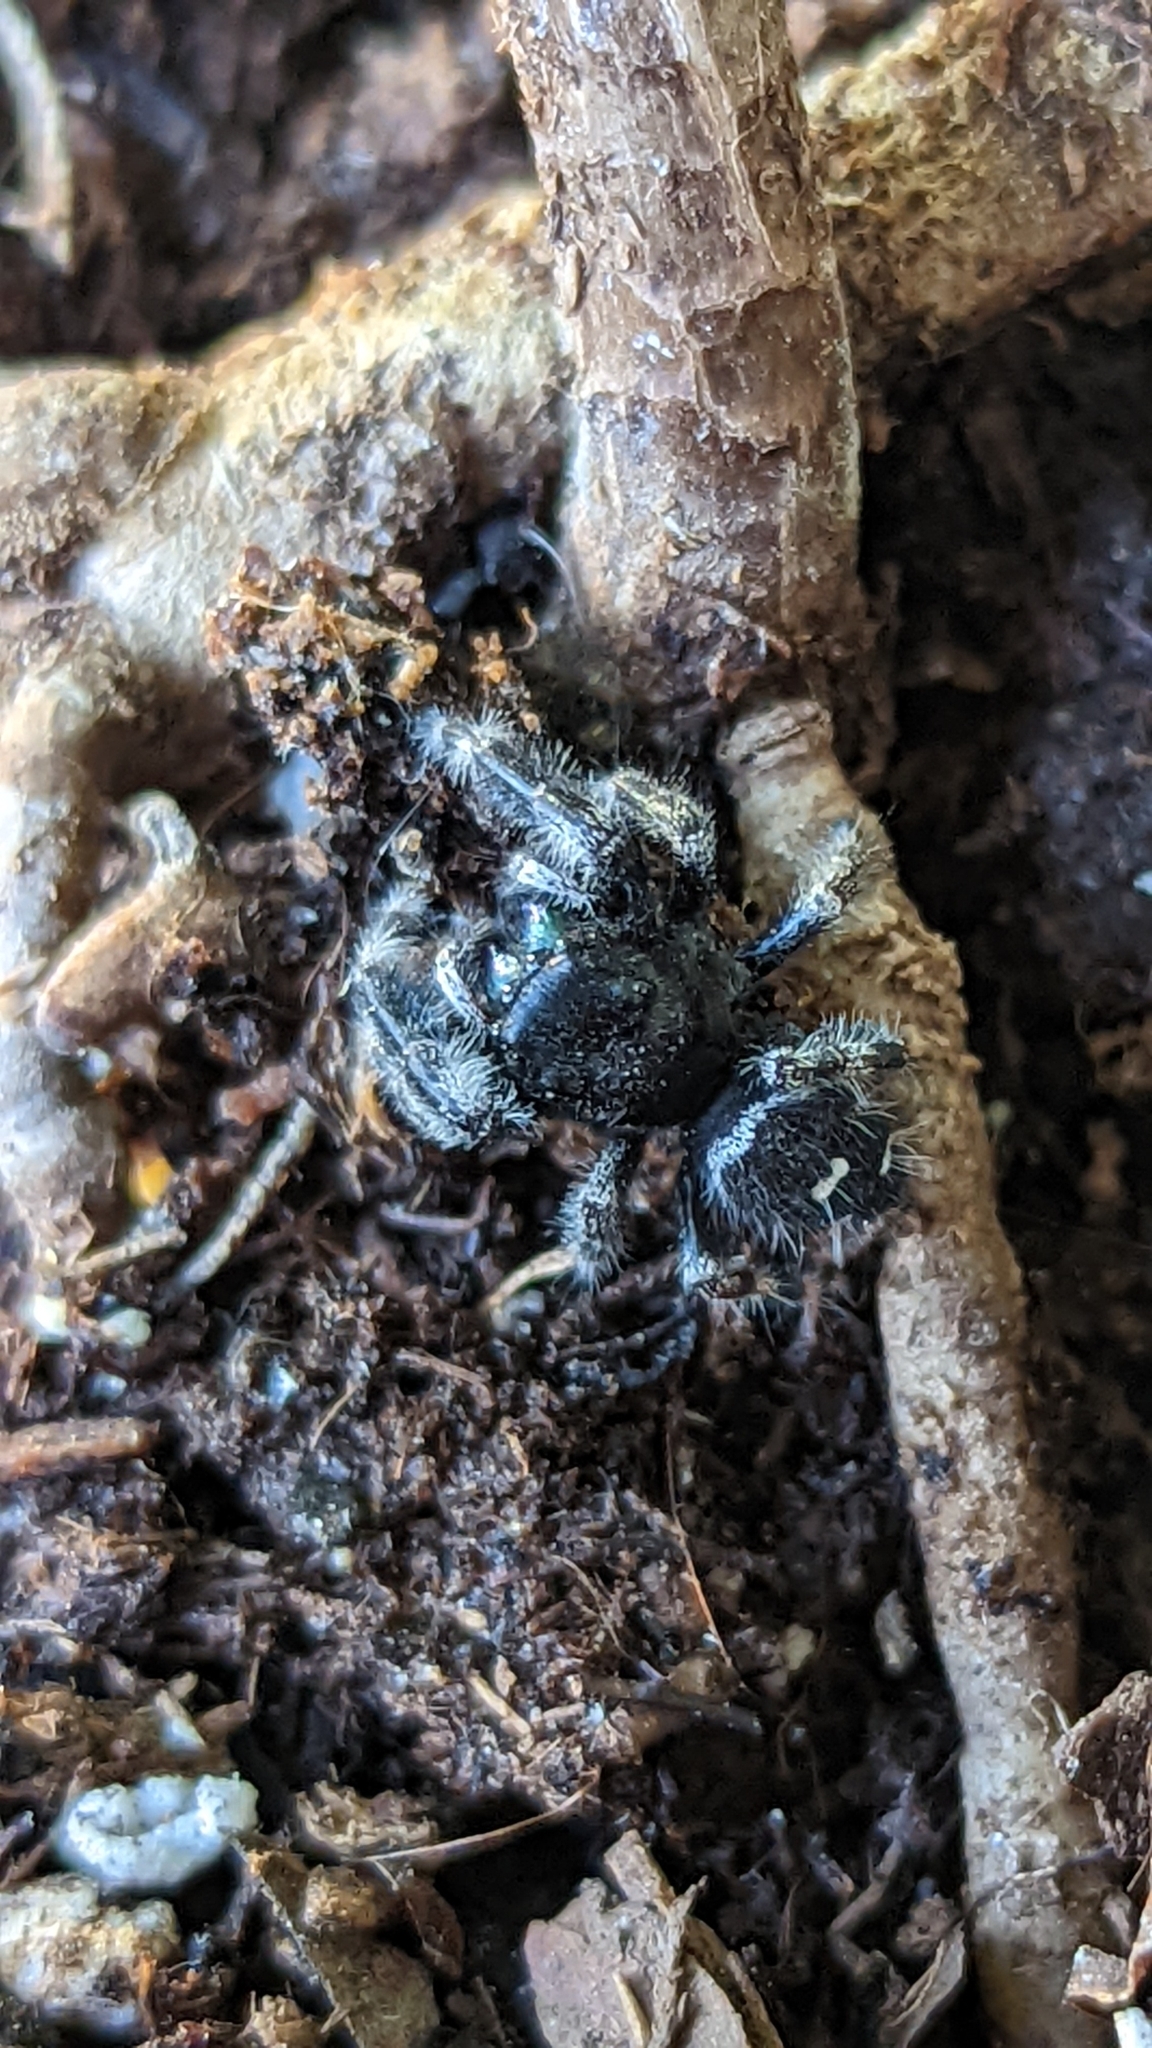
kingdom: Animalia
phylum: Arthropoda
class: Arachnida
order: Araneae
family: Salticidae
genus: Phidippus
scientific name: Phidippus audax
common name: Bold jumper
